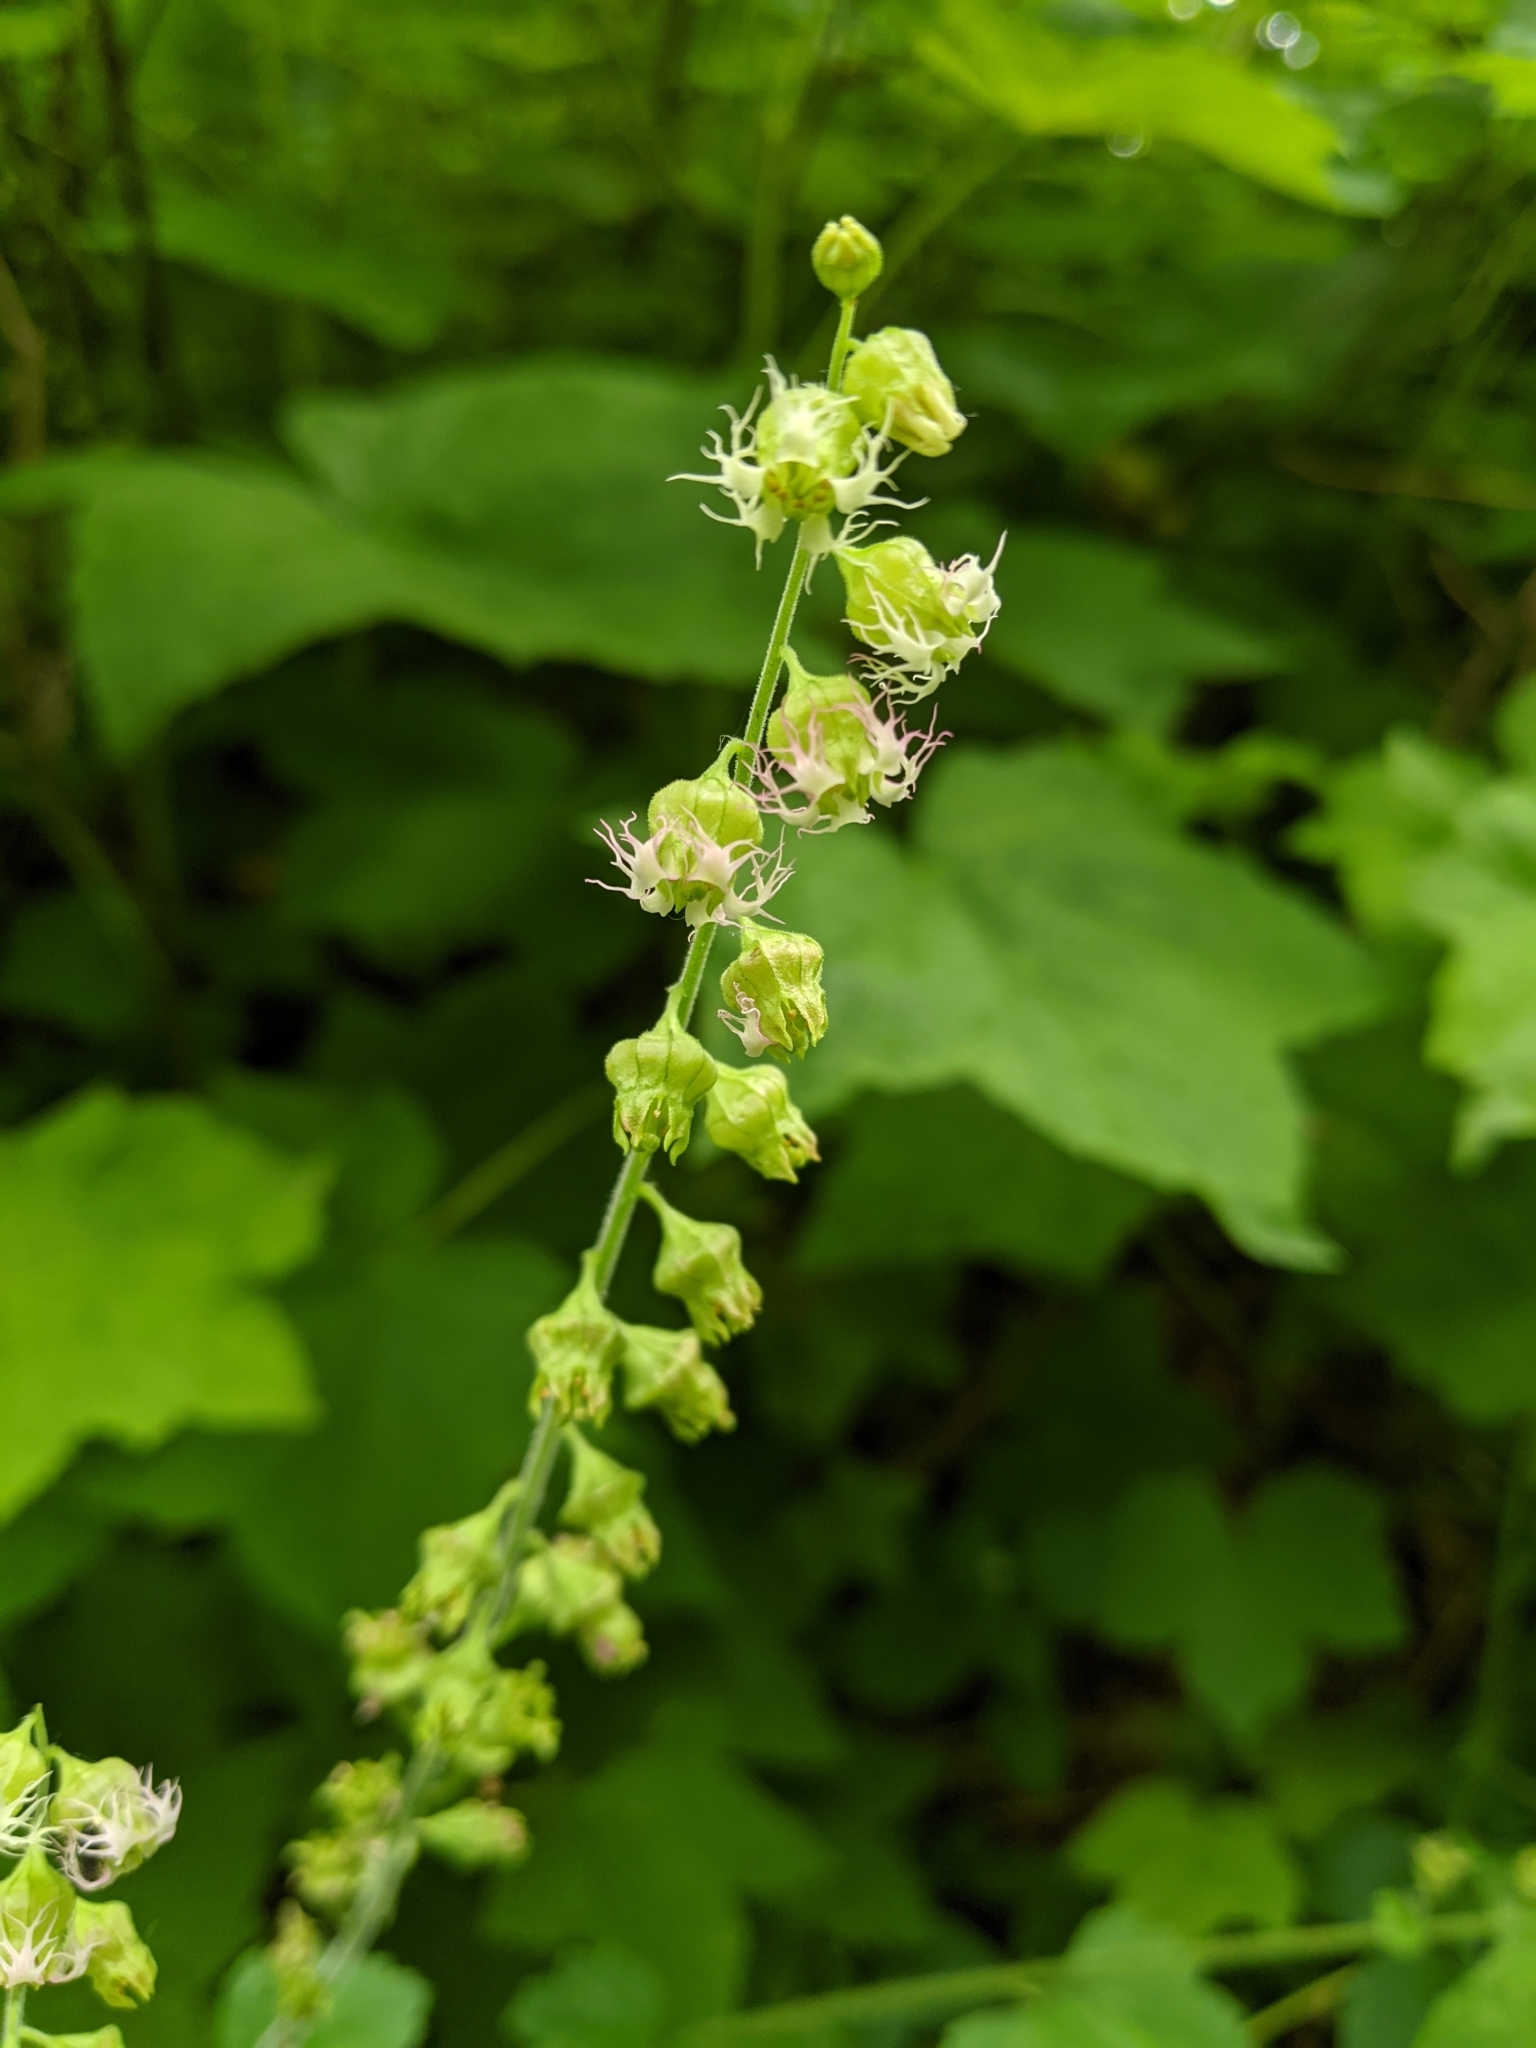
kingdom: Plantae
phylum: Tracheophyta
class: Magnoliopsida
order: Saxifragales
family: Saxifragaceae
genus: Tellima
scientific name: Tellima grandiflora
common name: Fringecups
